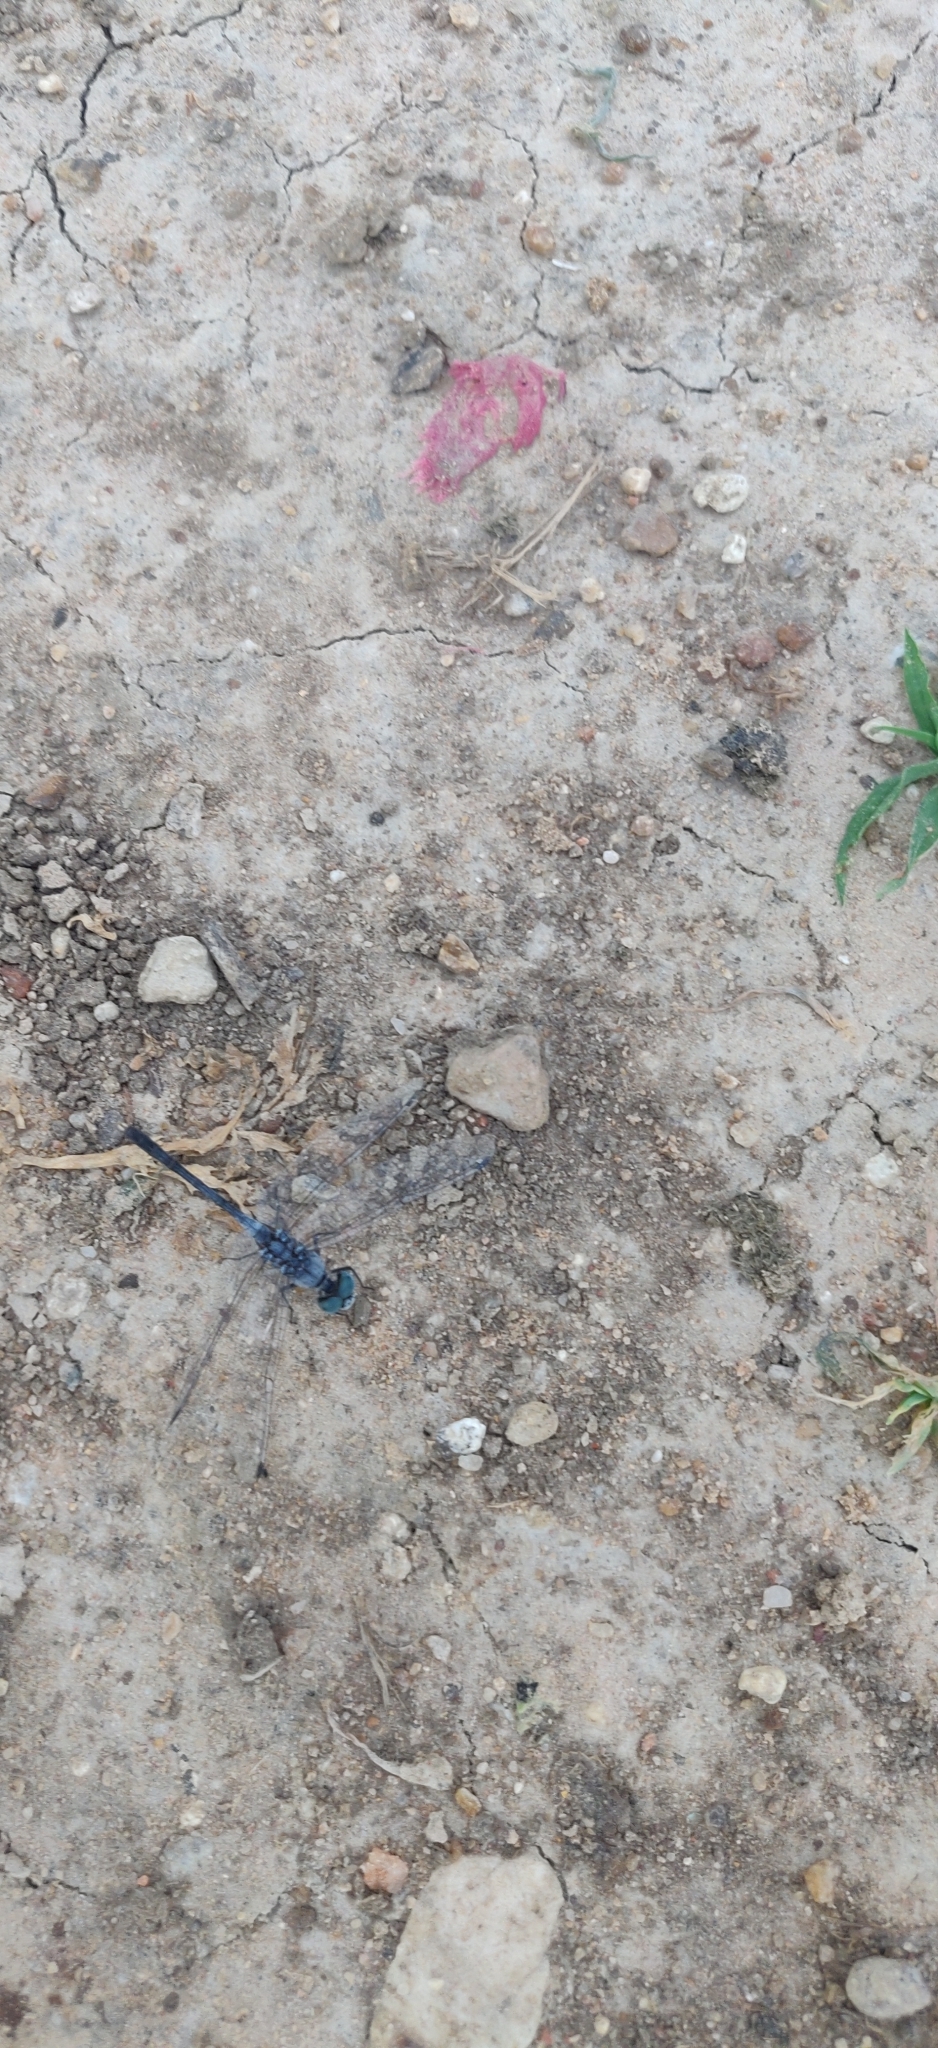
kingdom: Animalia
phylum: Arthropoda
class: Insecta
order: Odonata
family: Libellulidae
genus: Diplacodes
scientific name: Diplacodes trivialis
